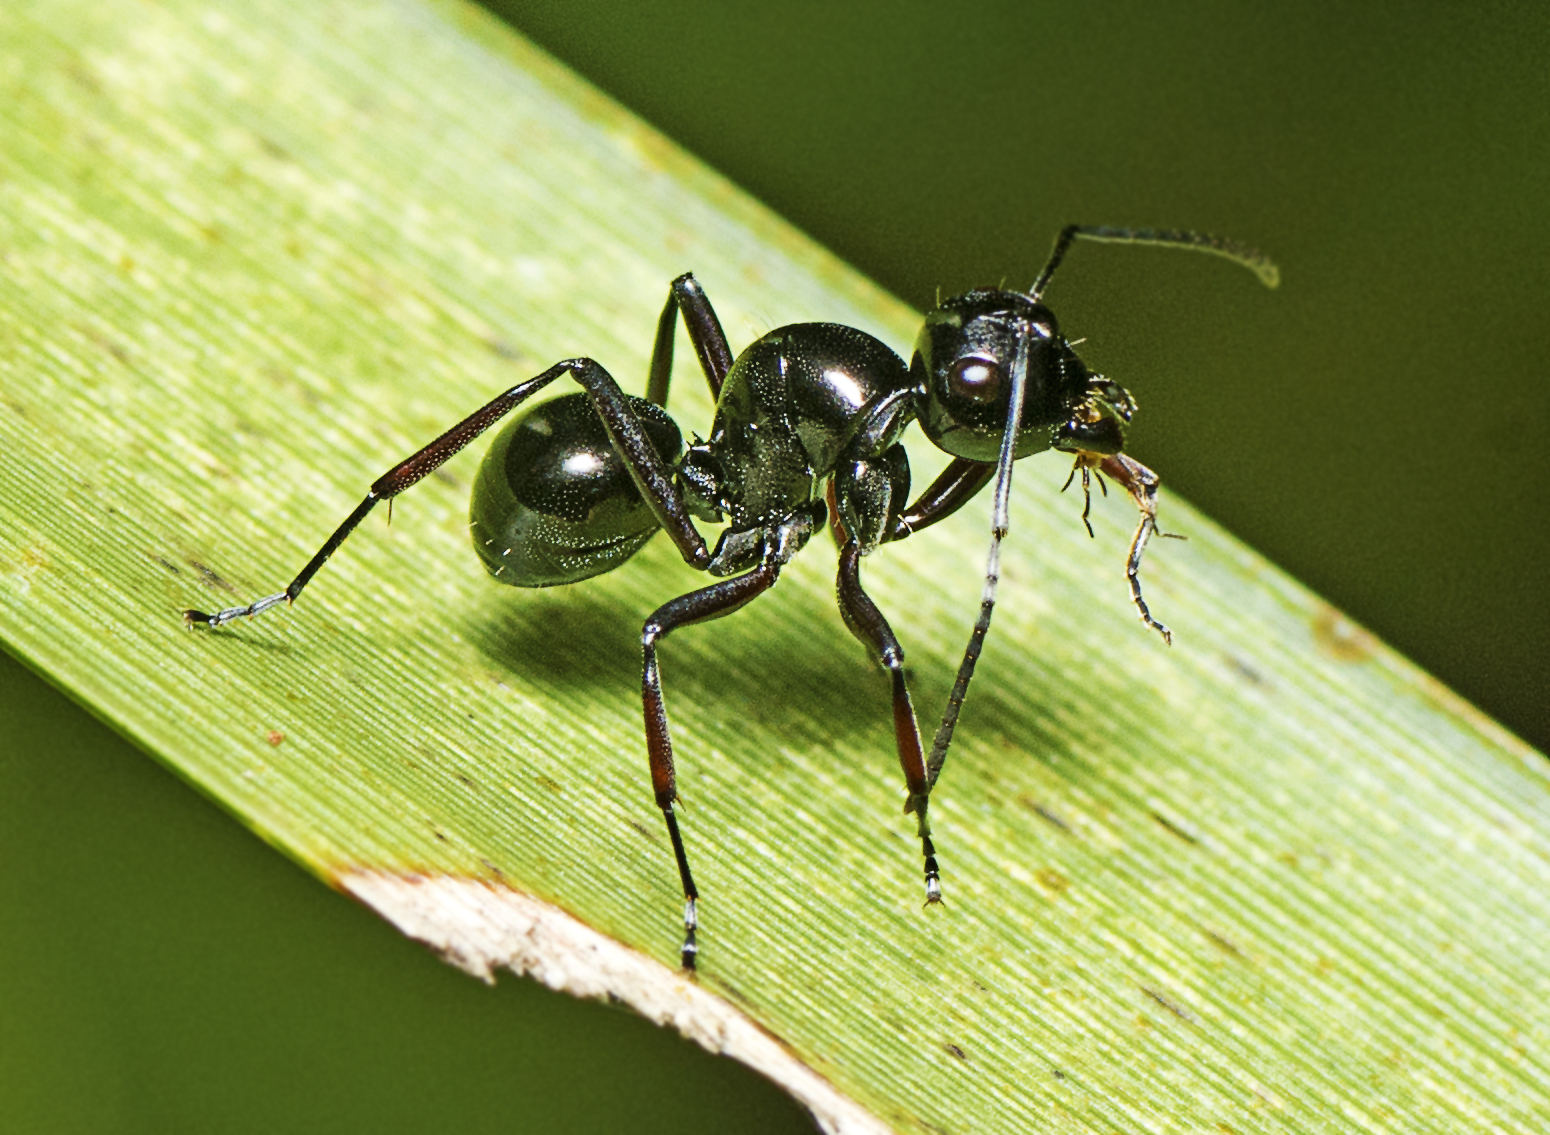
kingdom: Animalia
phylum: Arthropoda
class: Insecta
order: Hymenoptera
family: Formicidae
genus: Polyrhachis
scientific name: Polyrhachis australis
